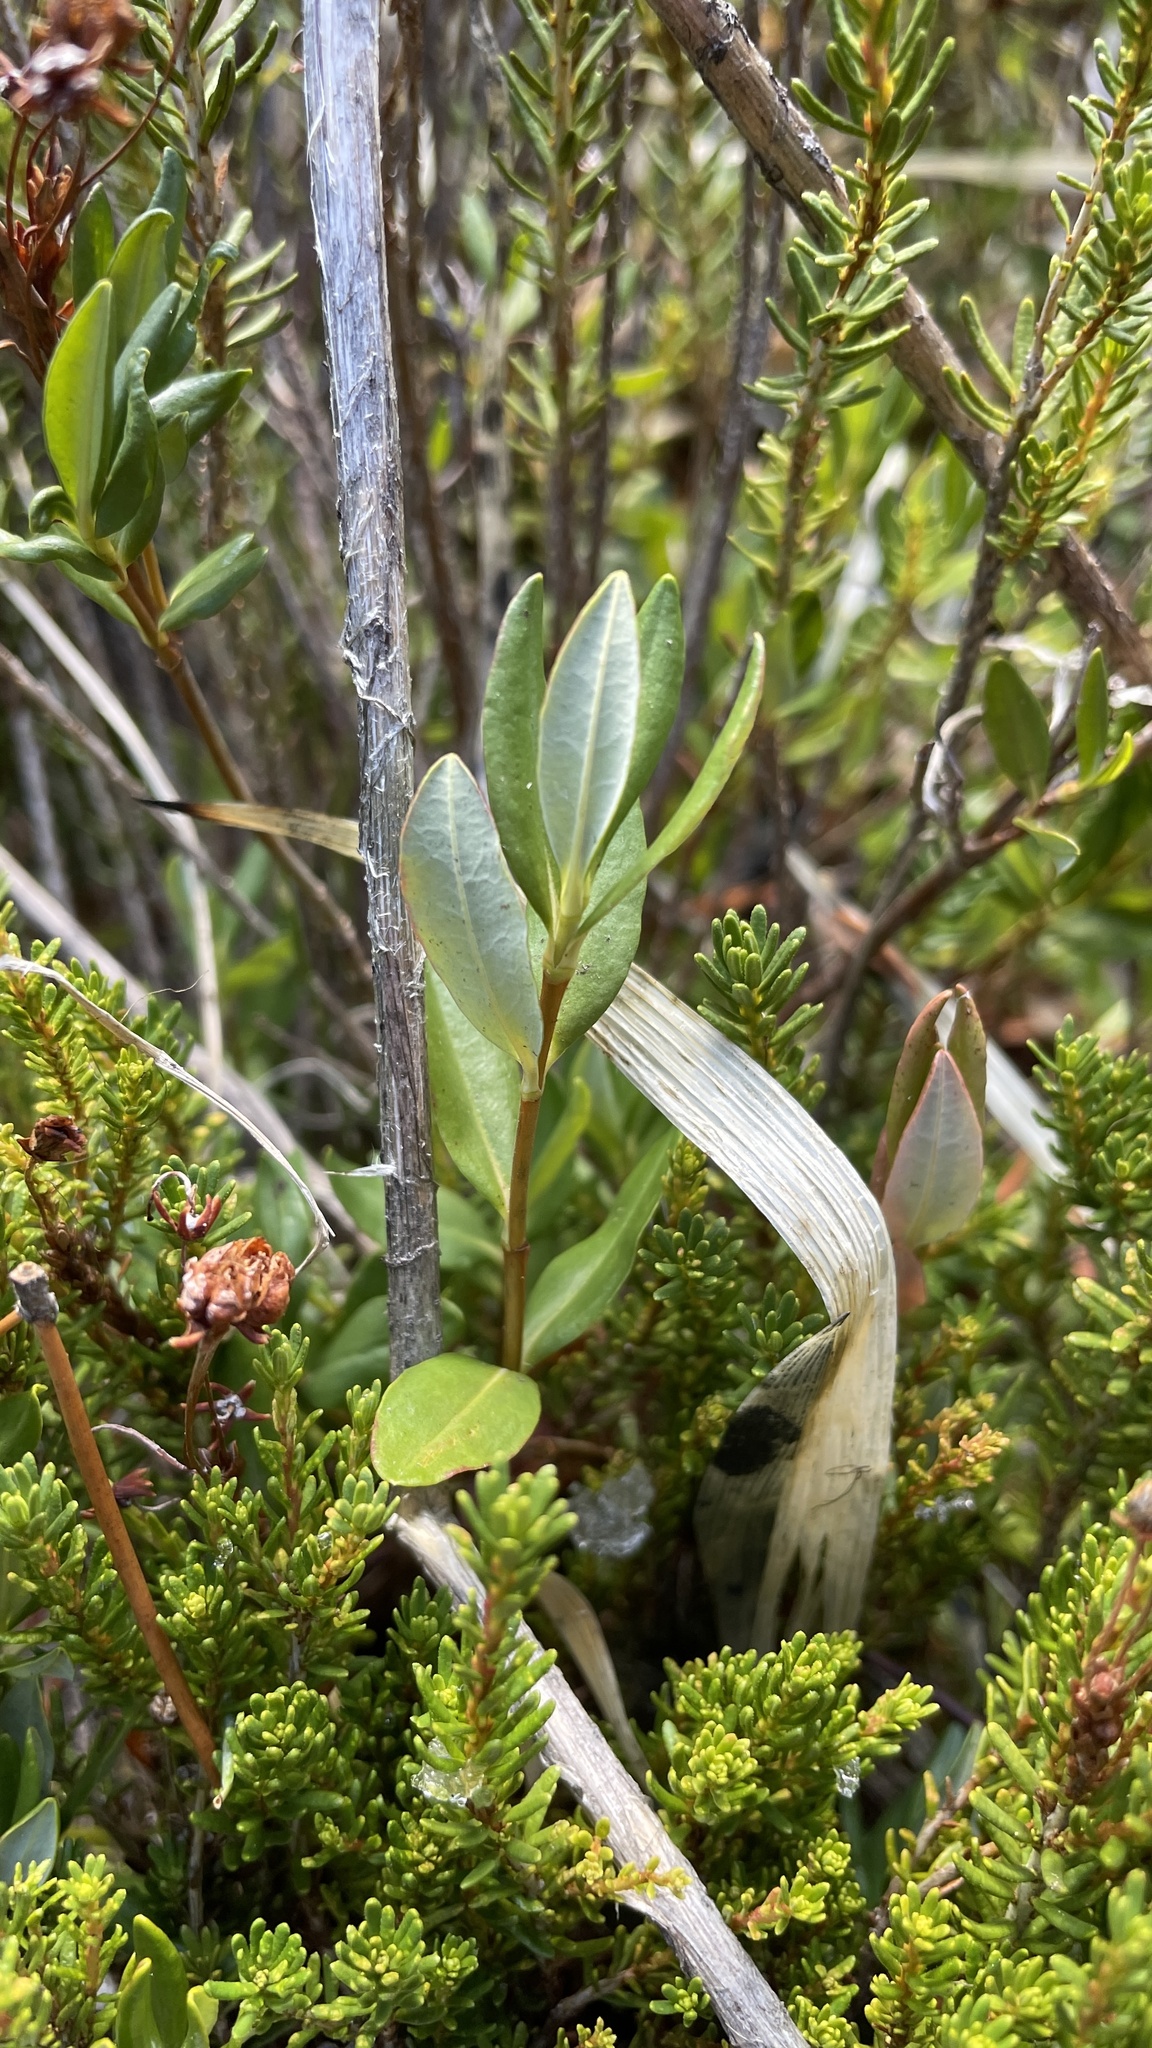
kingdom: Plantae
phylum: Tracheophyta
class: Magnoliopsida
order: Ericales
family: Ericaceae
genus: Kalmia
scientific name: Kalmia microphylla
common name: Alpine bog laurel
